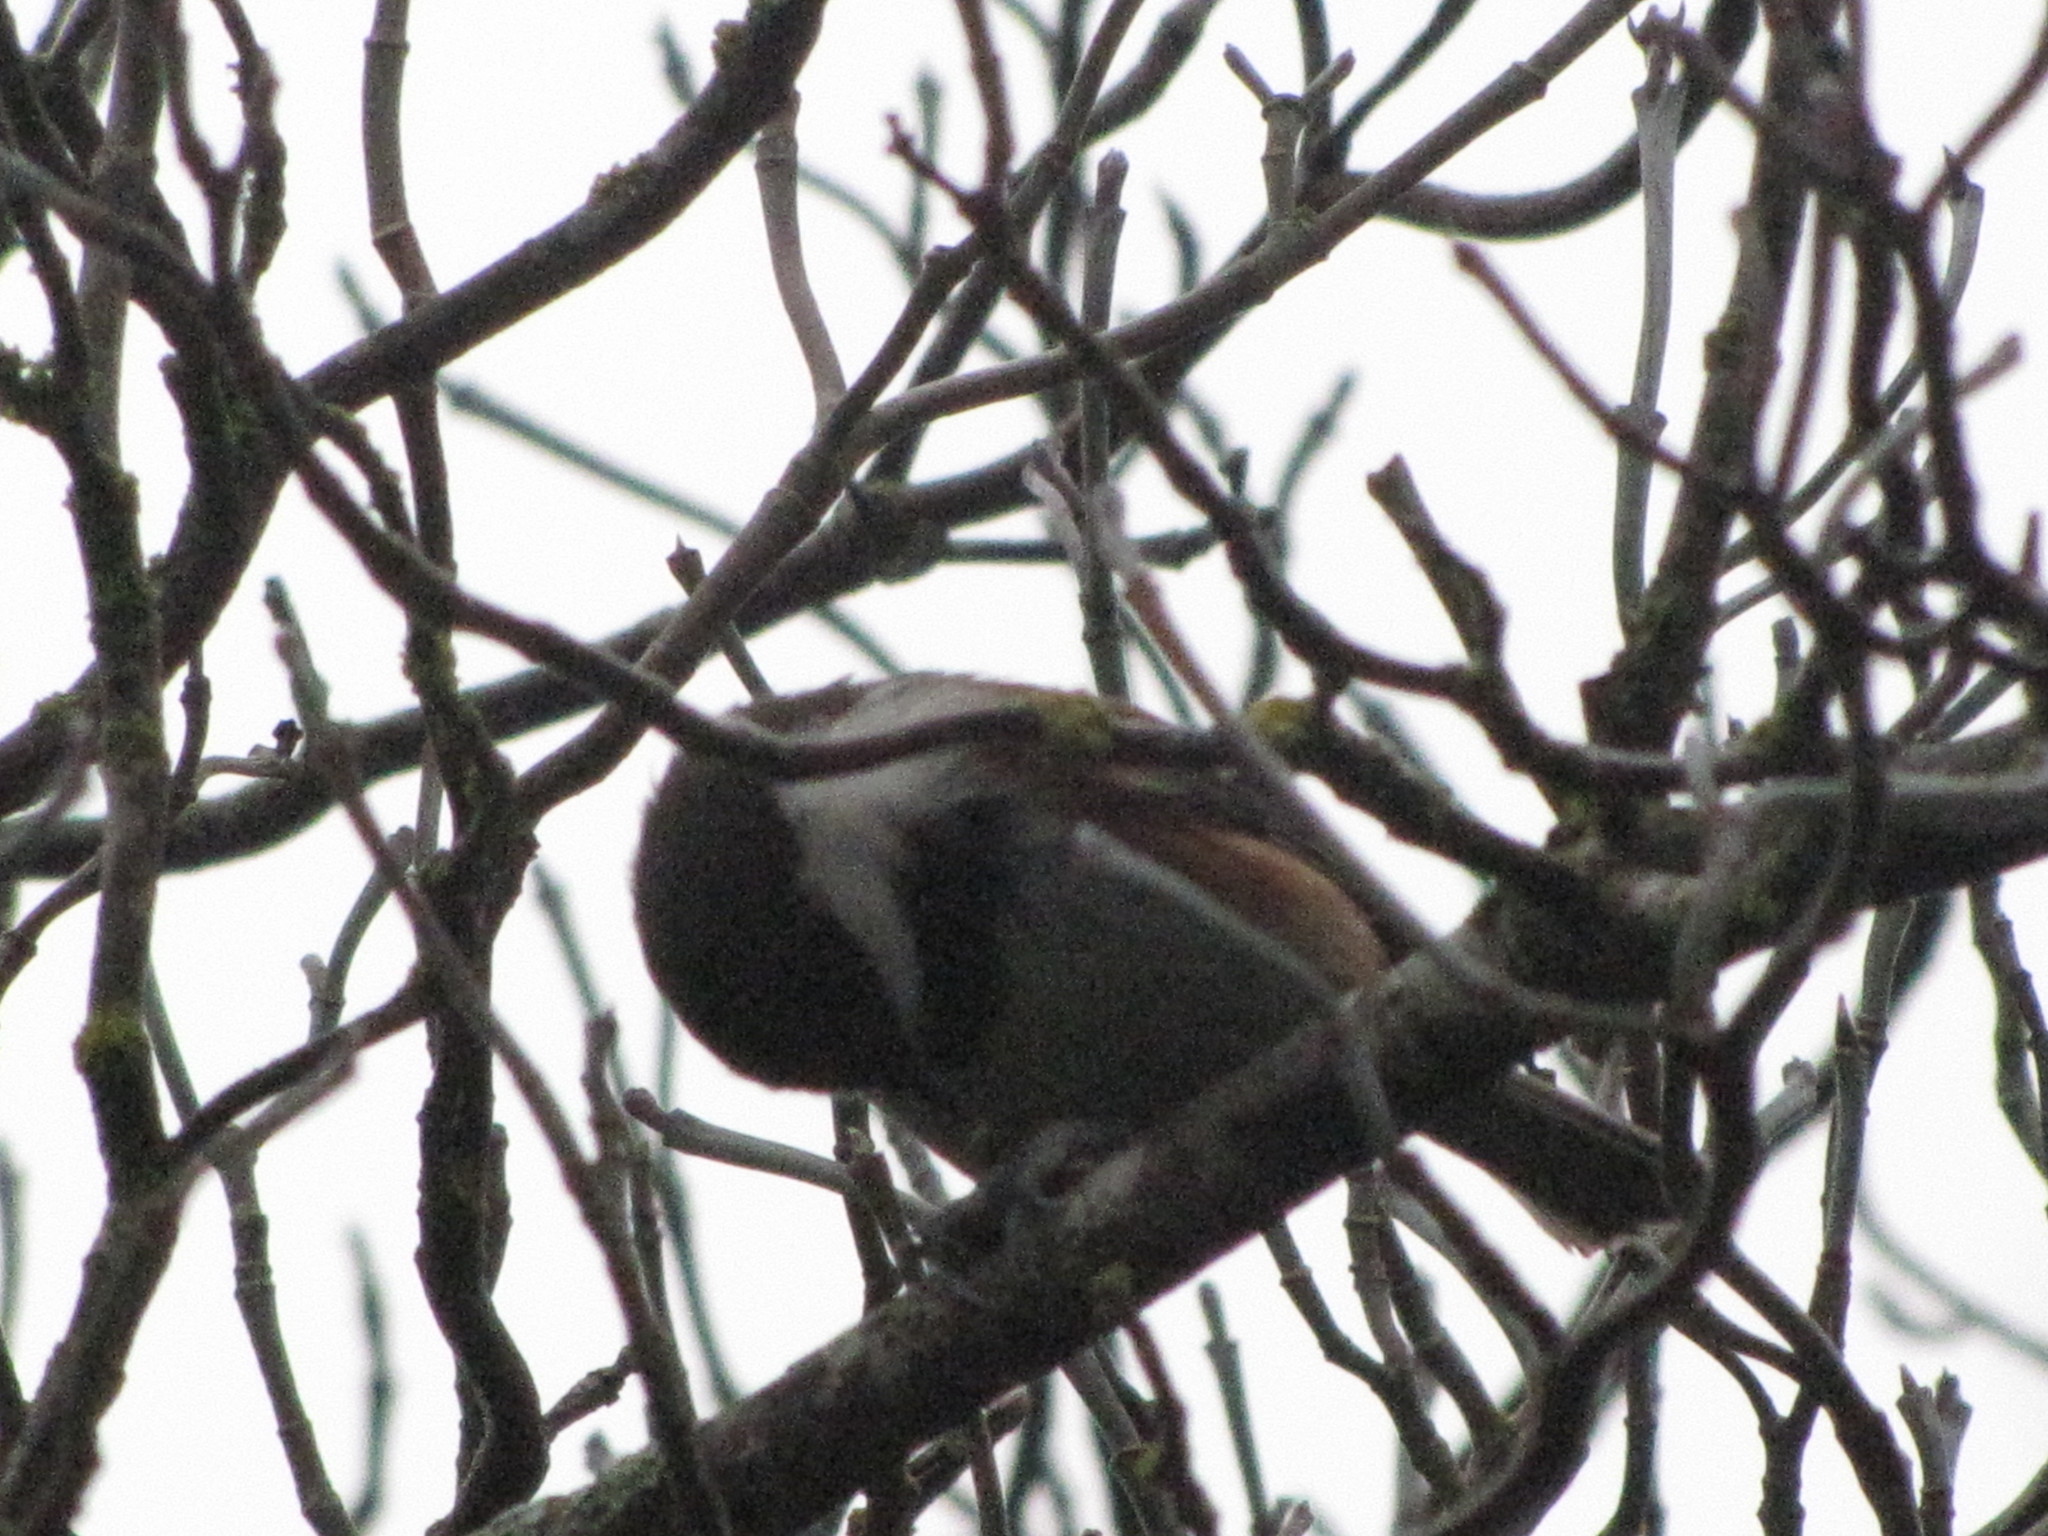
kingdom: Animalia
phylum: Chordata
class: Aves
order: Passeriformes
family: Paridae
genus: Poecile
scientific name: Poecile rufescens
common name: Chestnut-backed chickadee
